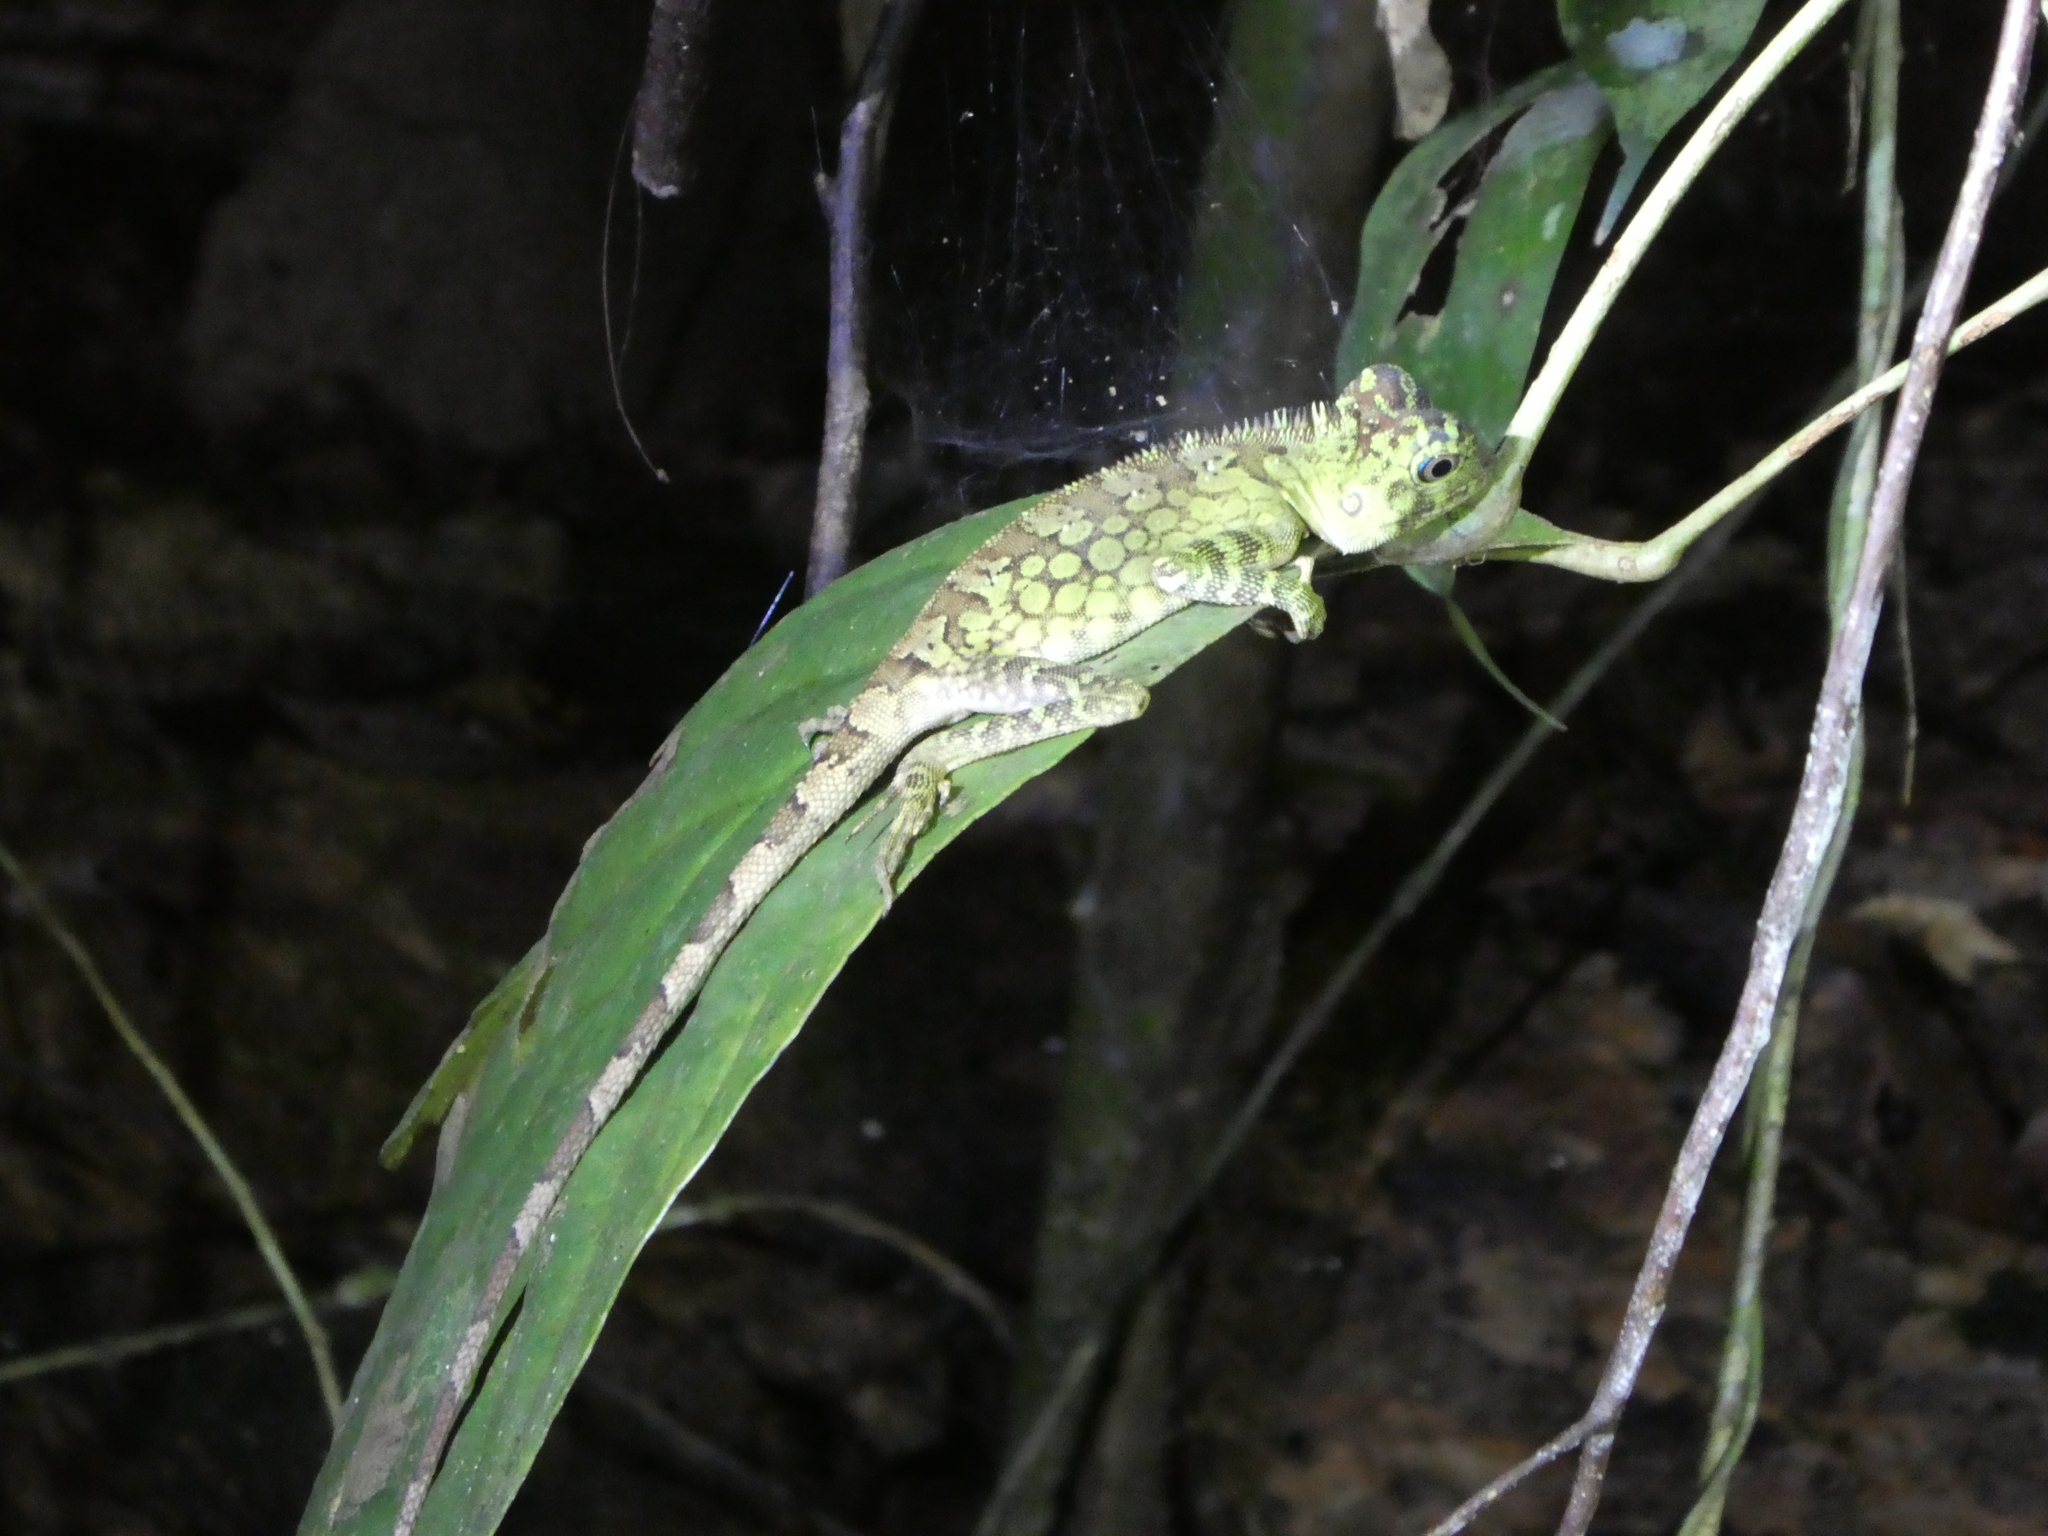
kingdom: Animalia
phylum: Chordata
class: Squamata
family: Agamidae
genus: Gonocephalus
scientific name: Gonocephalus bornensis
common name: Borneo forest dragon
